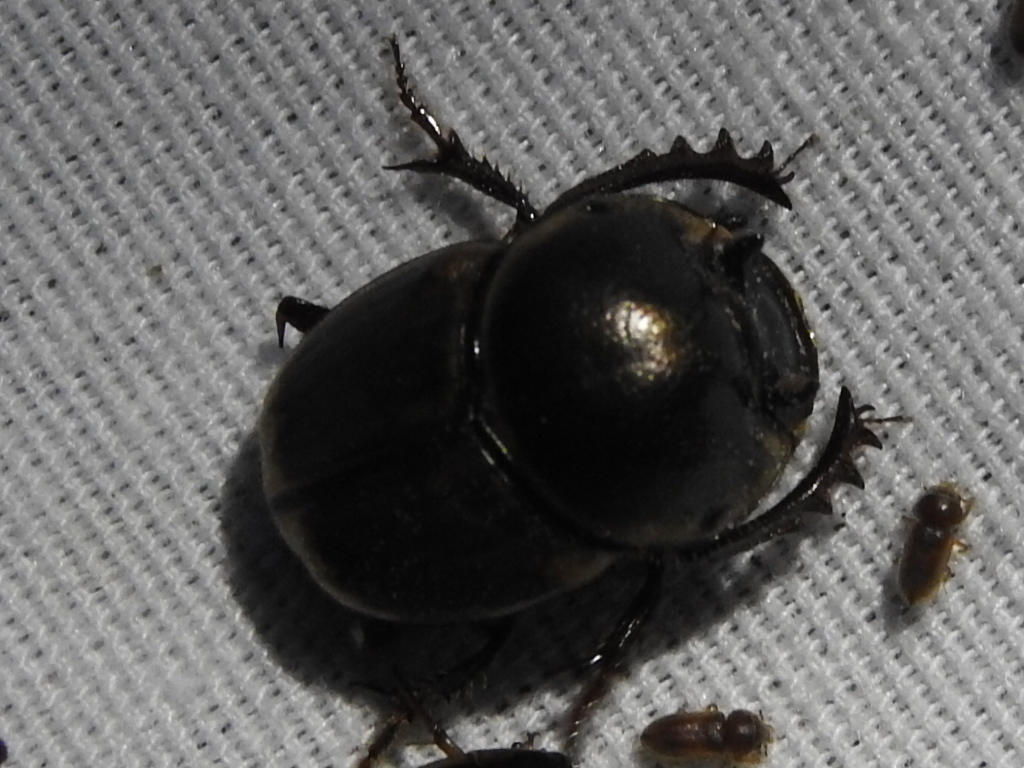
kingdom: Animalia
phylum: Arthropoda
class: Insecta
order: Coleoptera
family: Scarabaeidae
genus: Digitonthophagus
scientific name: Digitonthophagus gazella
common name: Brown dung beetle
